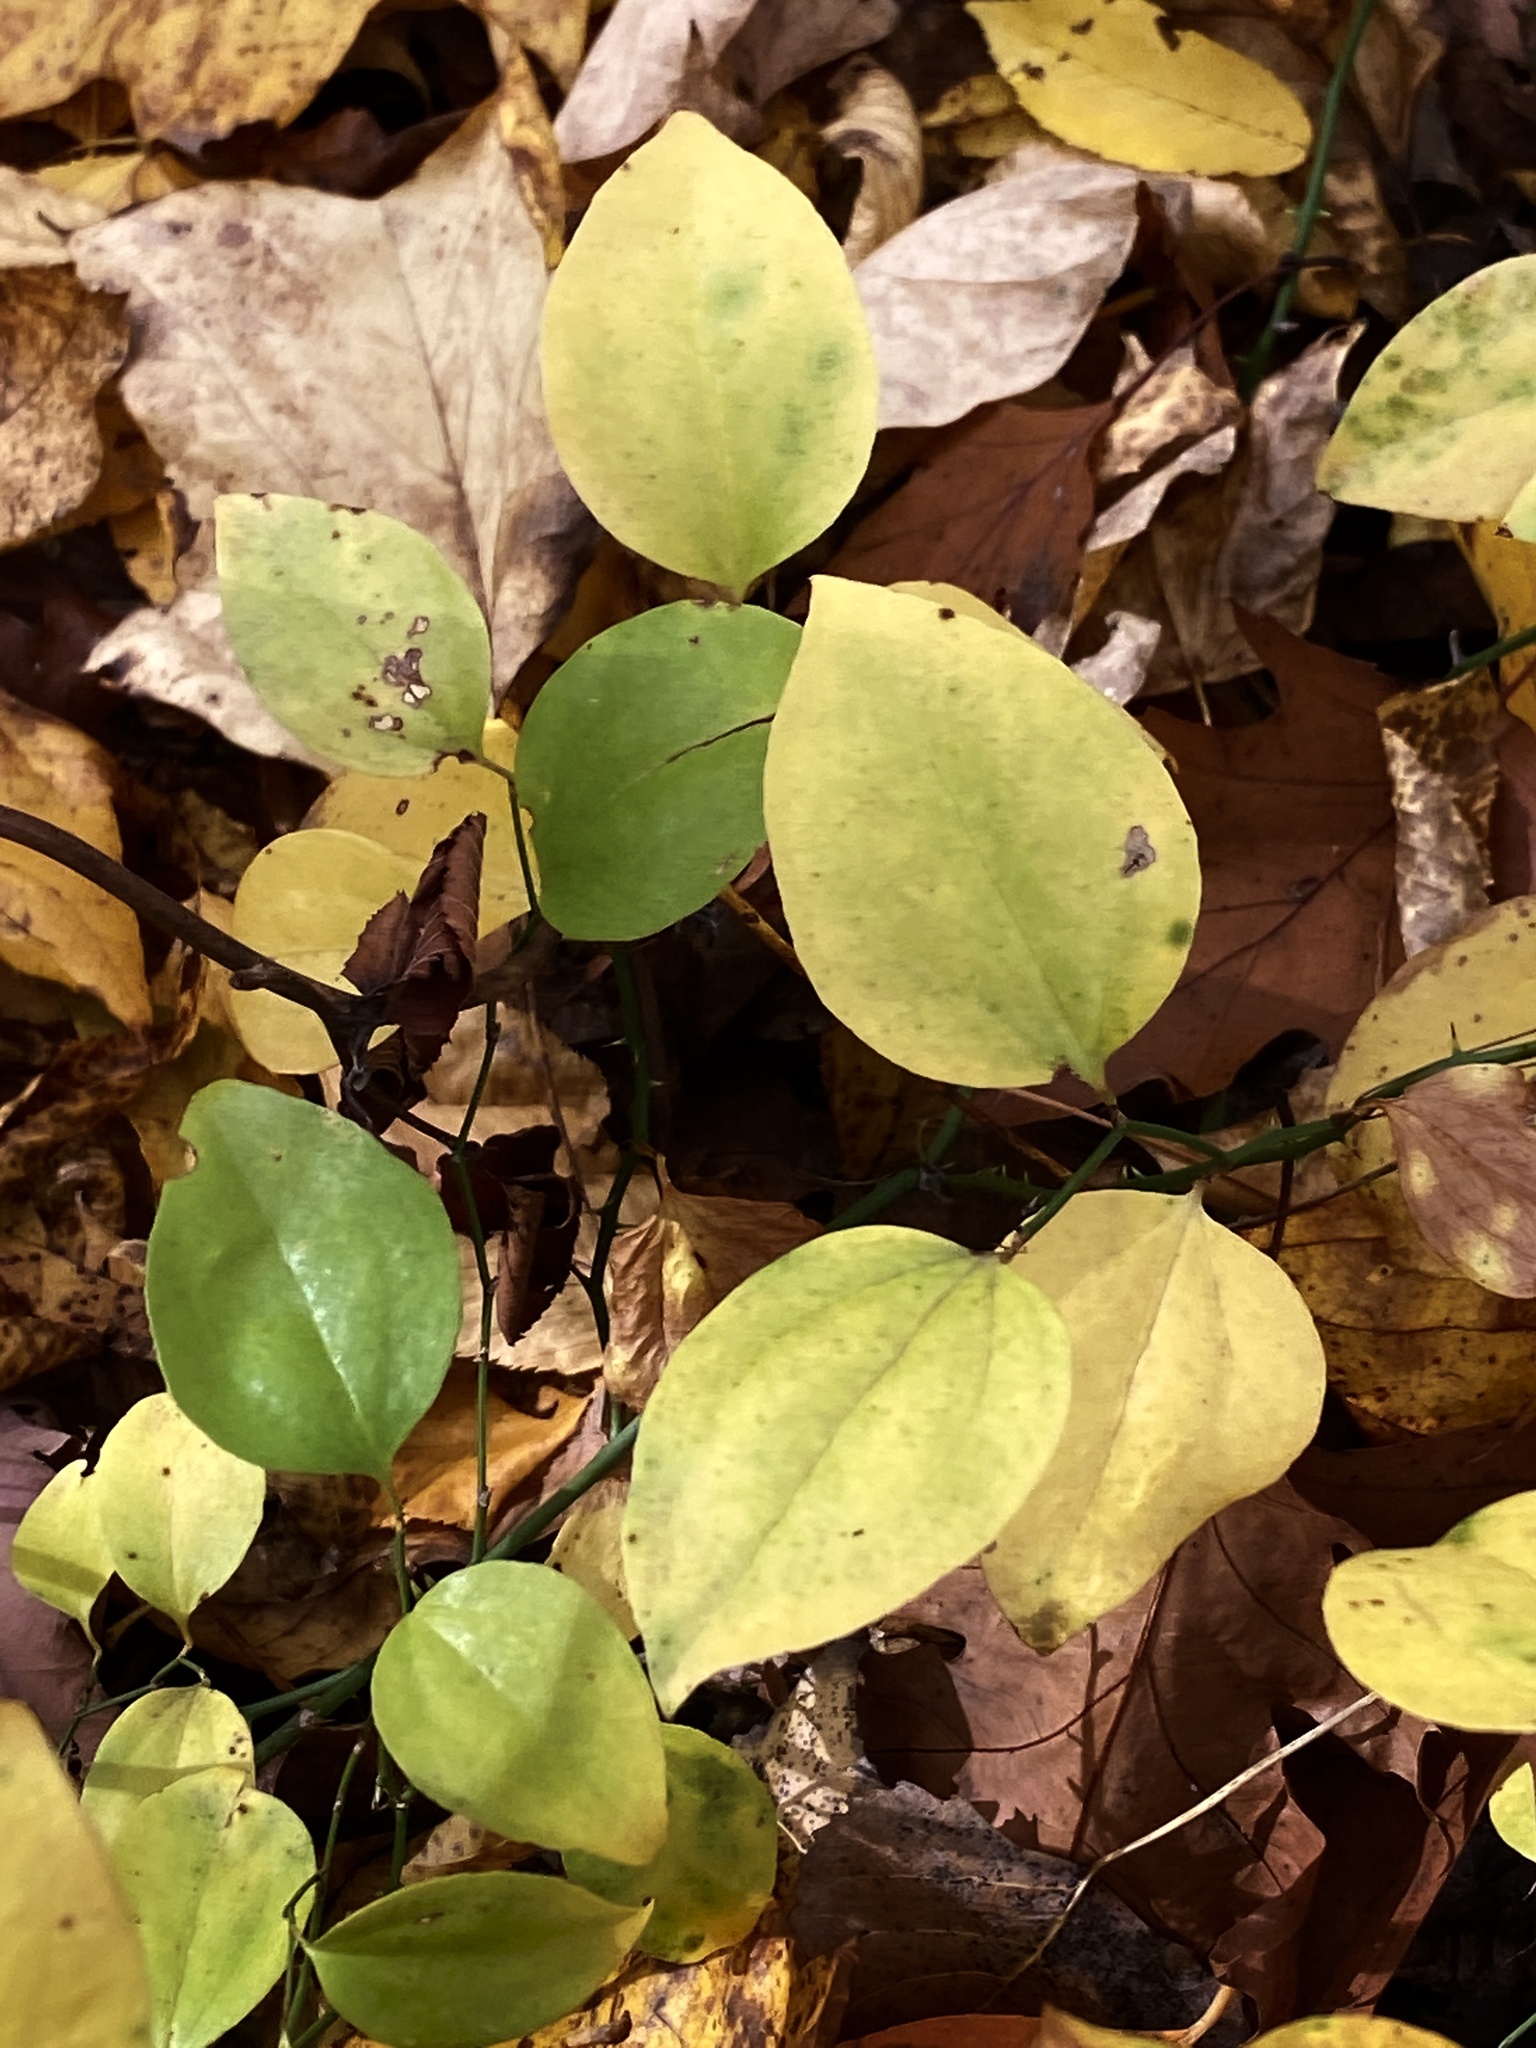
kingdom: Plantae
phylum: Tracheophyta
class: Liliopsida
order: Liliales
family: Smilacaceae
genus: Smilax
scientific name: Smilax rotundifolia
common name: Bullbriar
